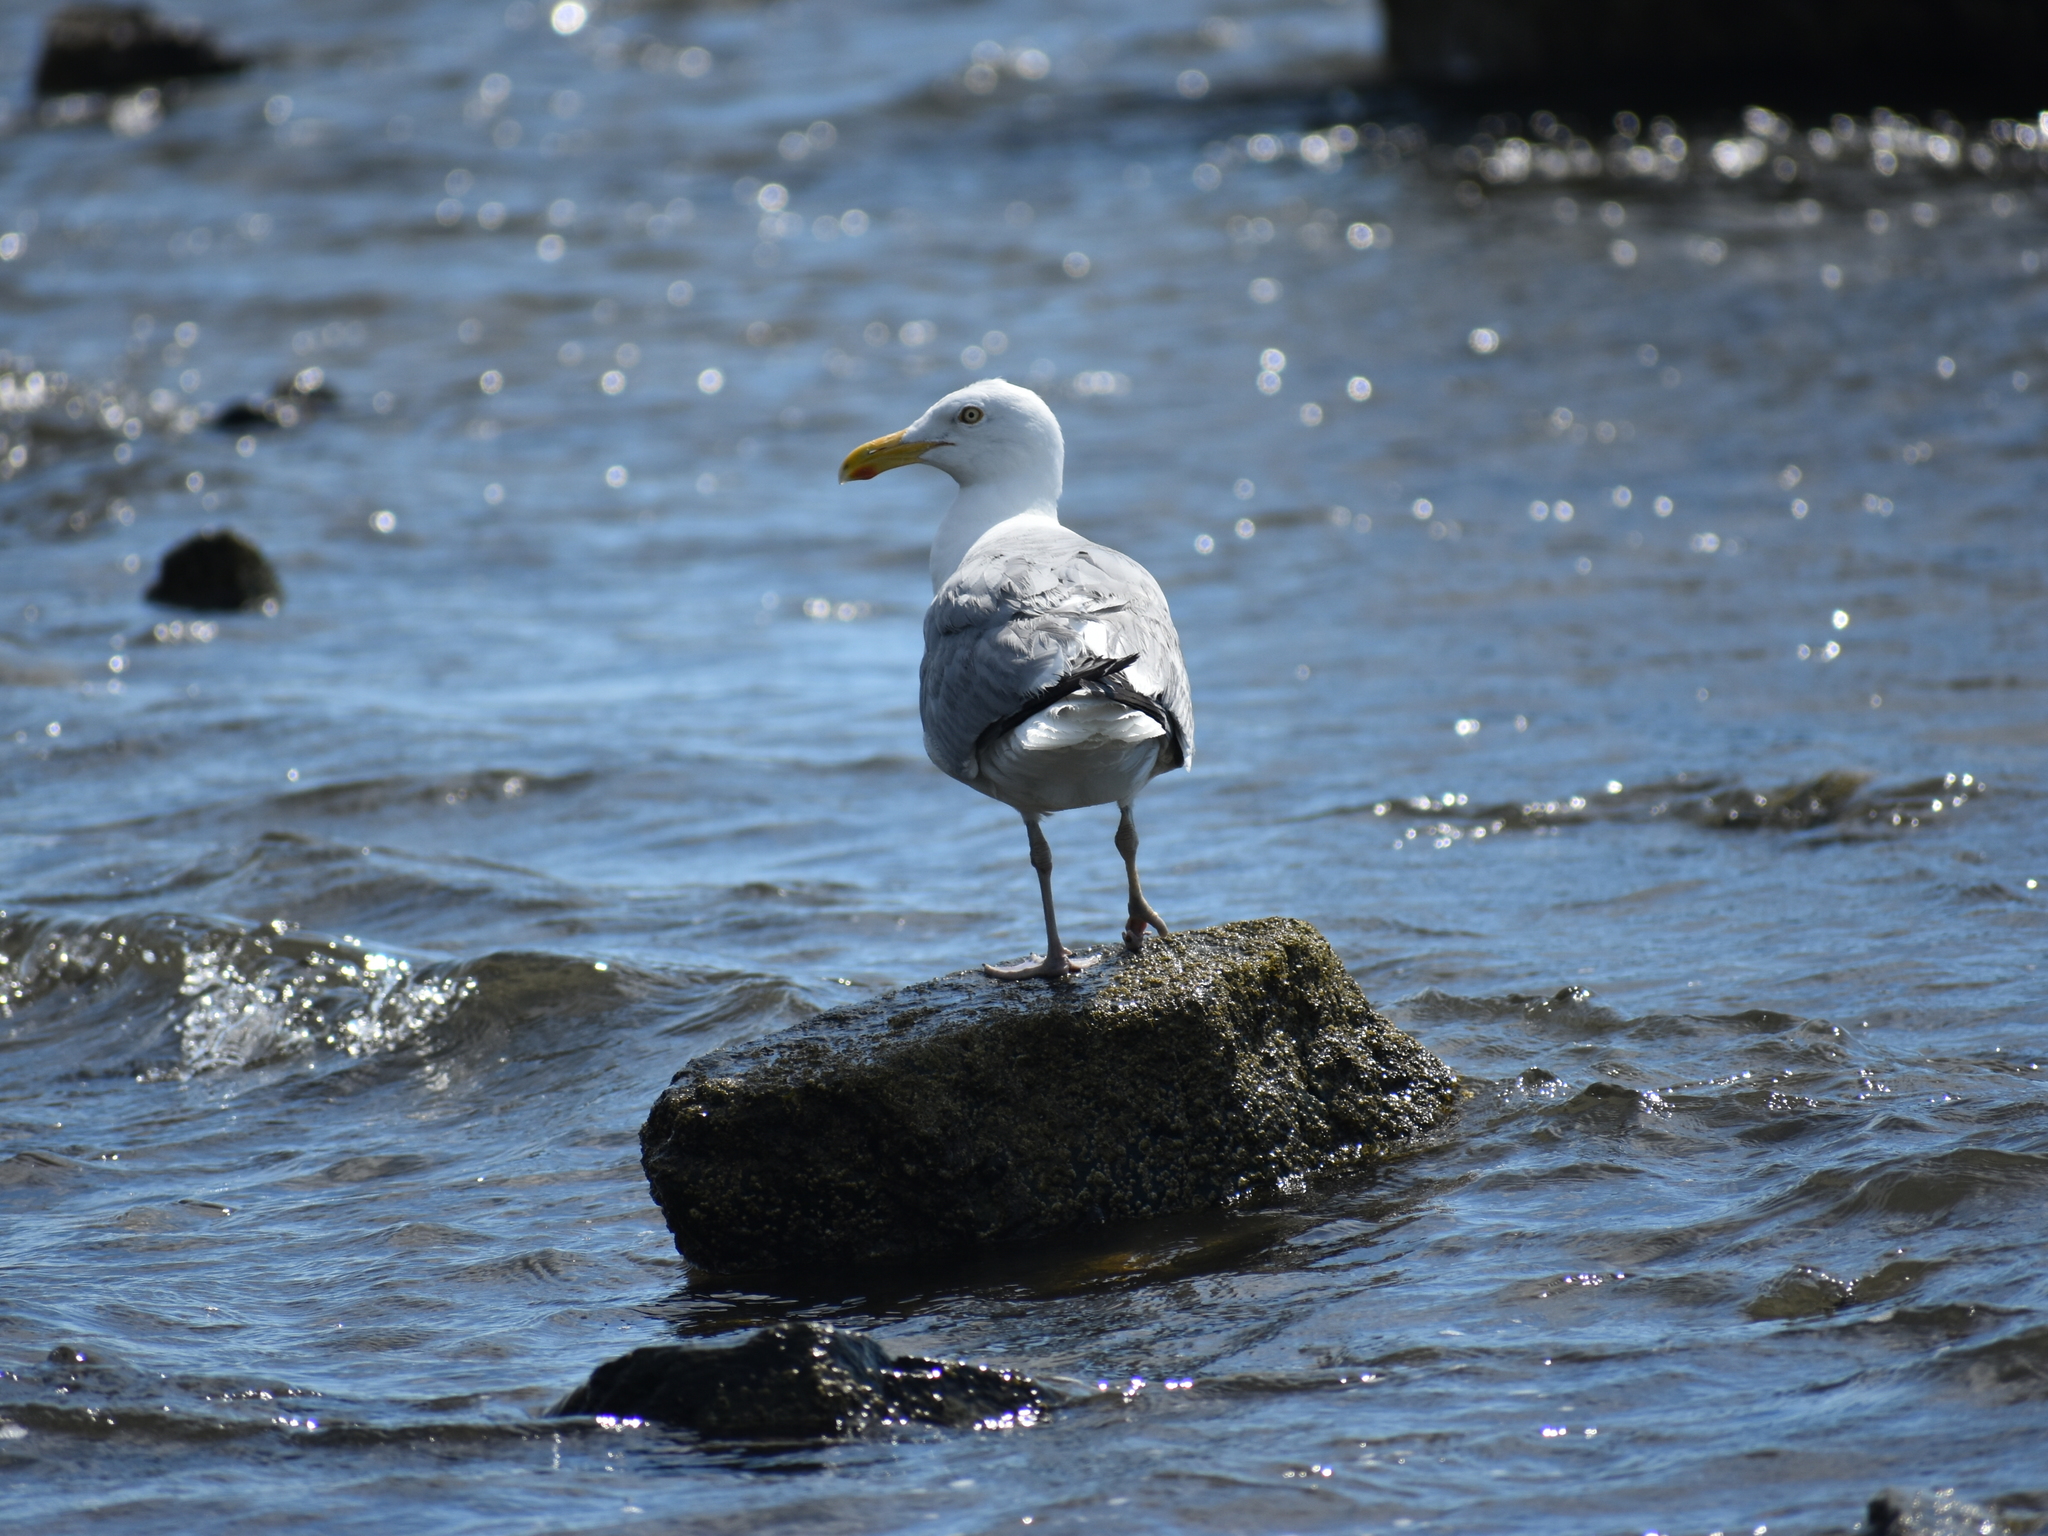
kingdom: Animalia
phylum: Chordata
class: Aves
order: Charadriiformes
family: Laridae
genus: Larus
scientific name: Larus argentatus
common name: Herring gull
